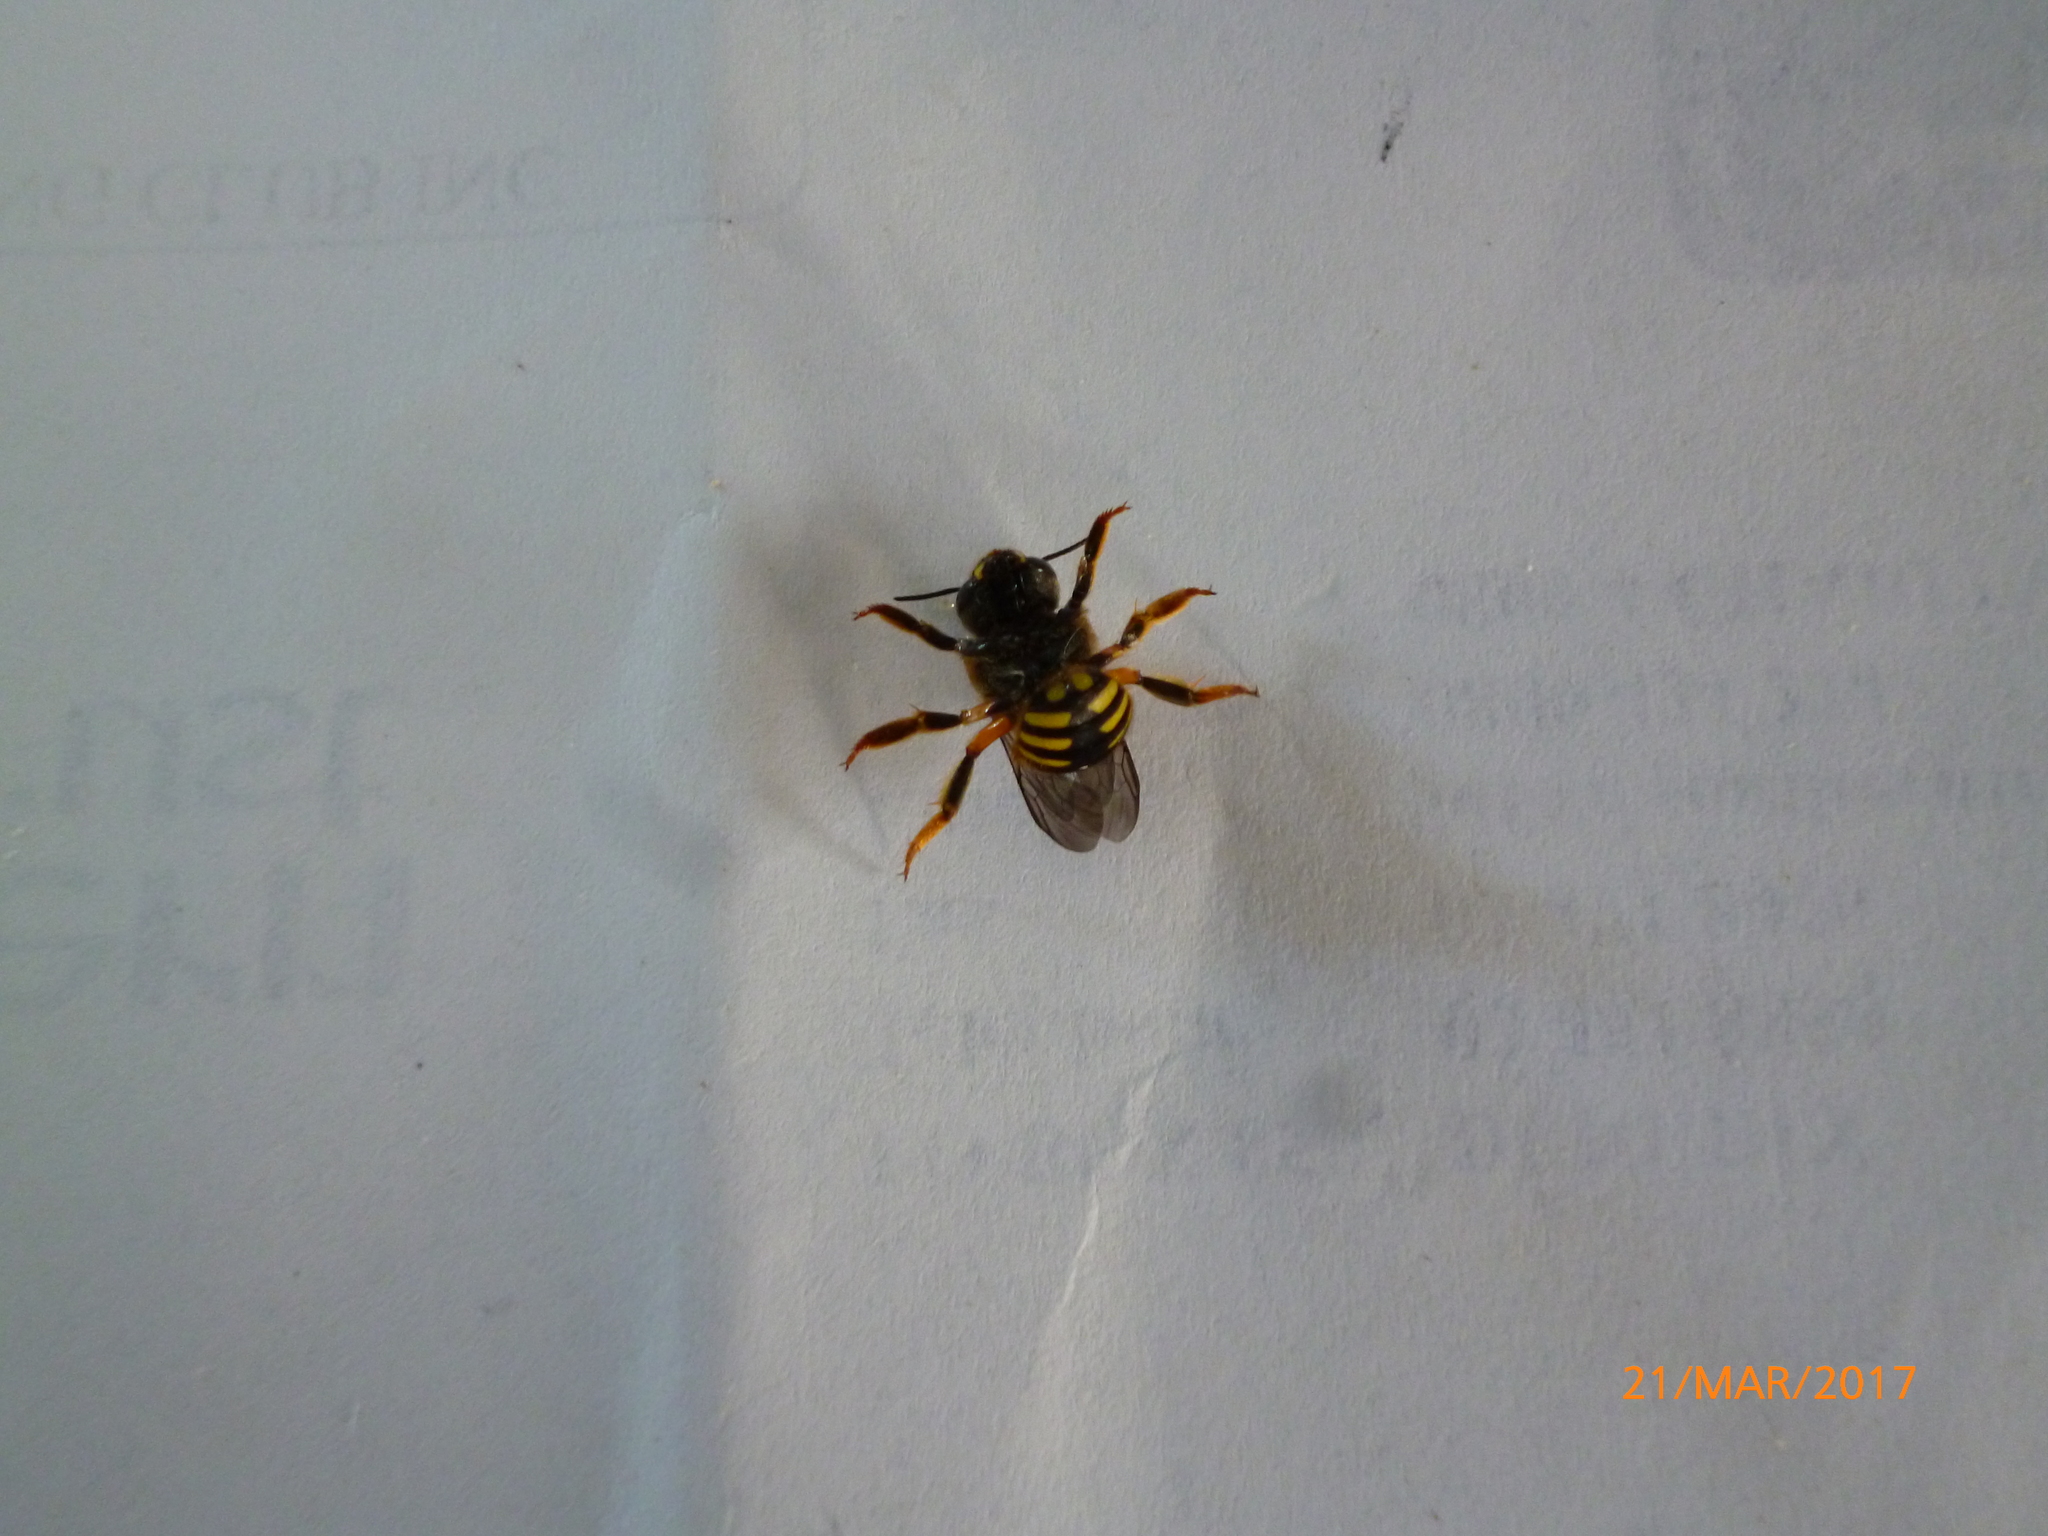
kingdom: Animalia
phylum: Arthropoda
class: Insecta
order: Hymenoptera
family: Megachilidae
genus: Anthidium
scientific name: Anthidium manicatum
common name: Wool carder bee
